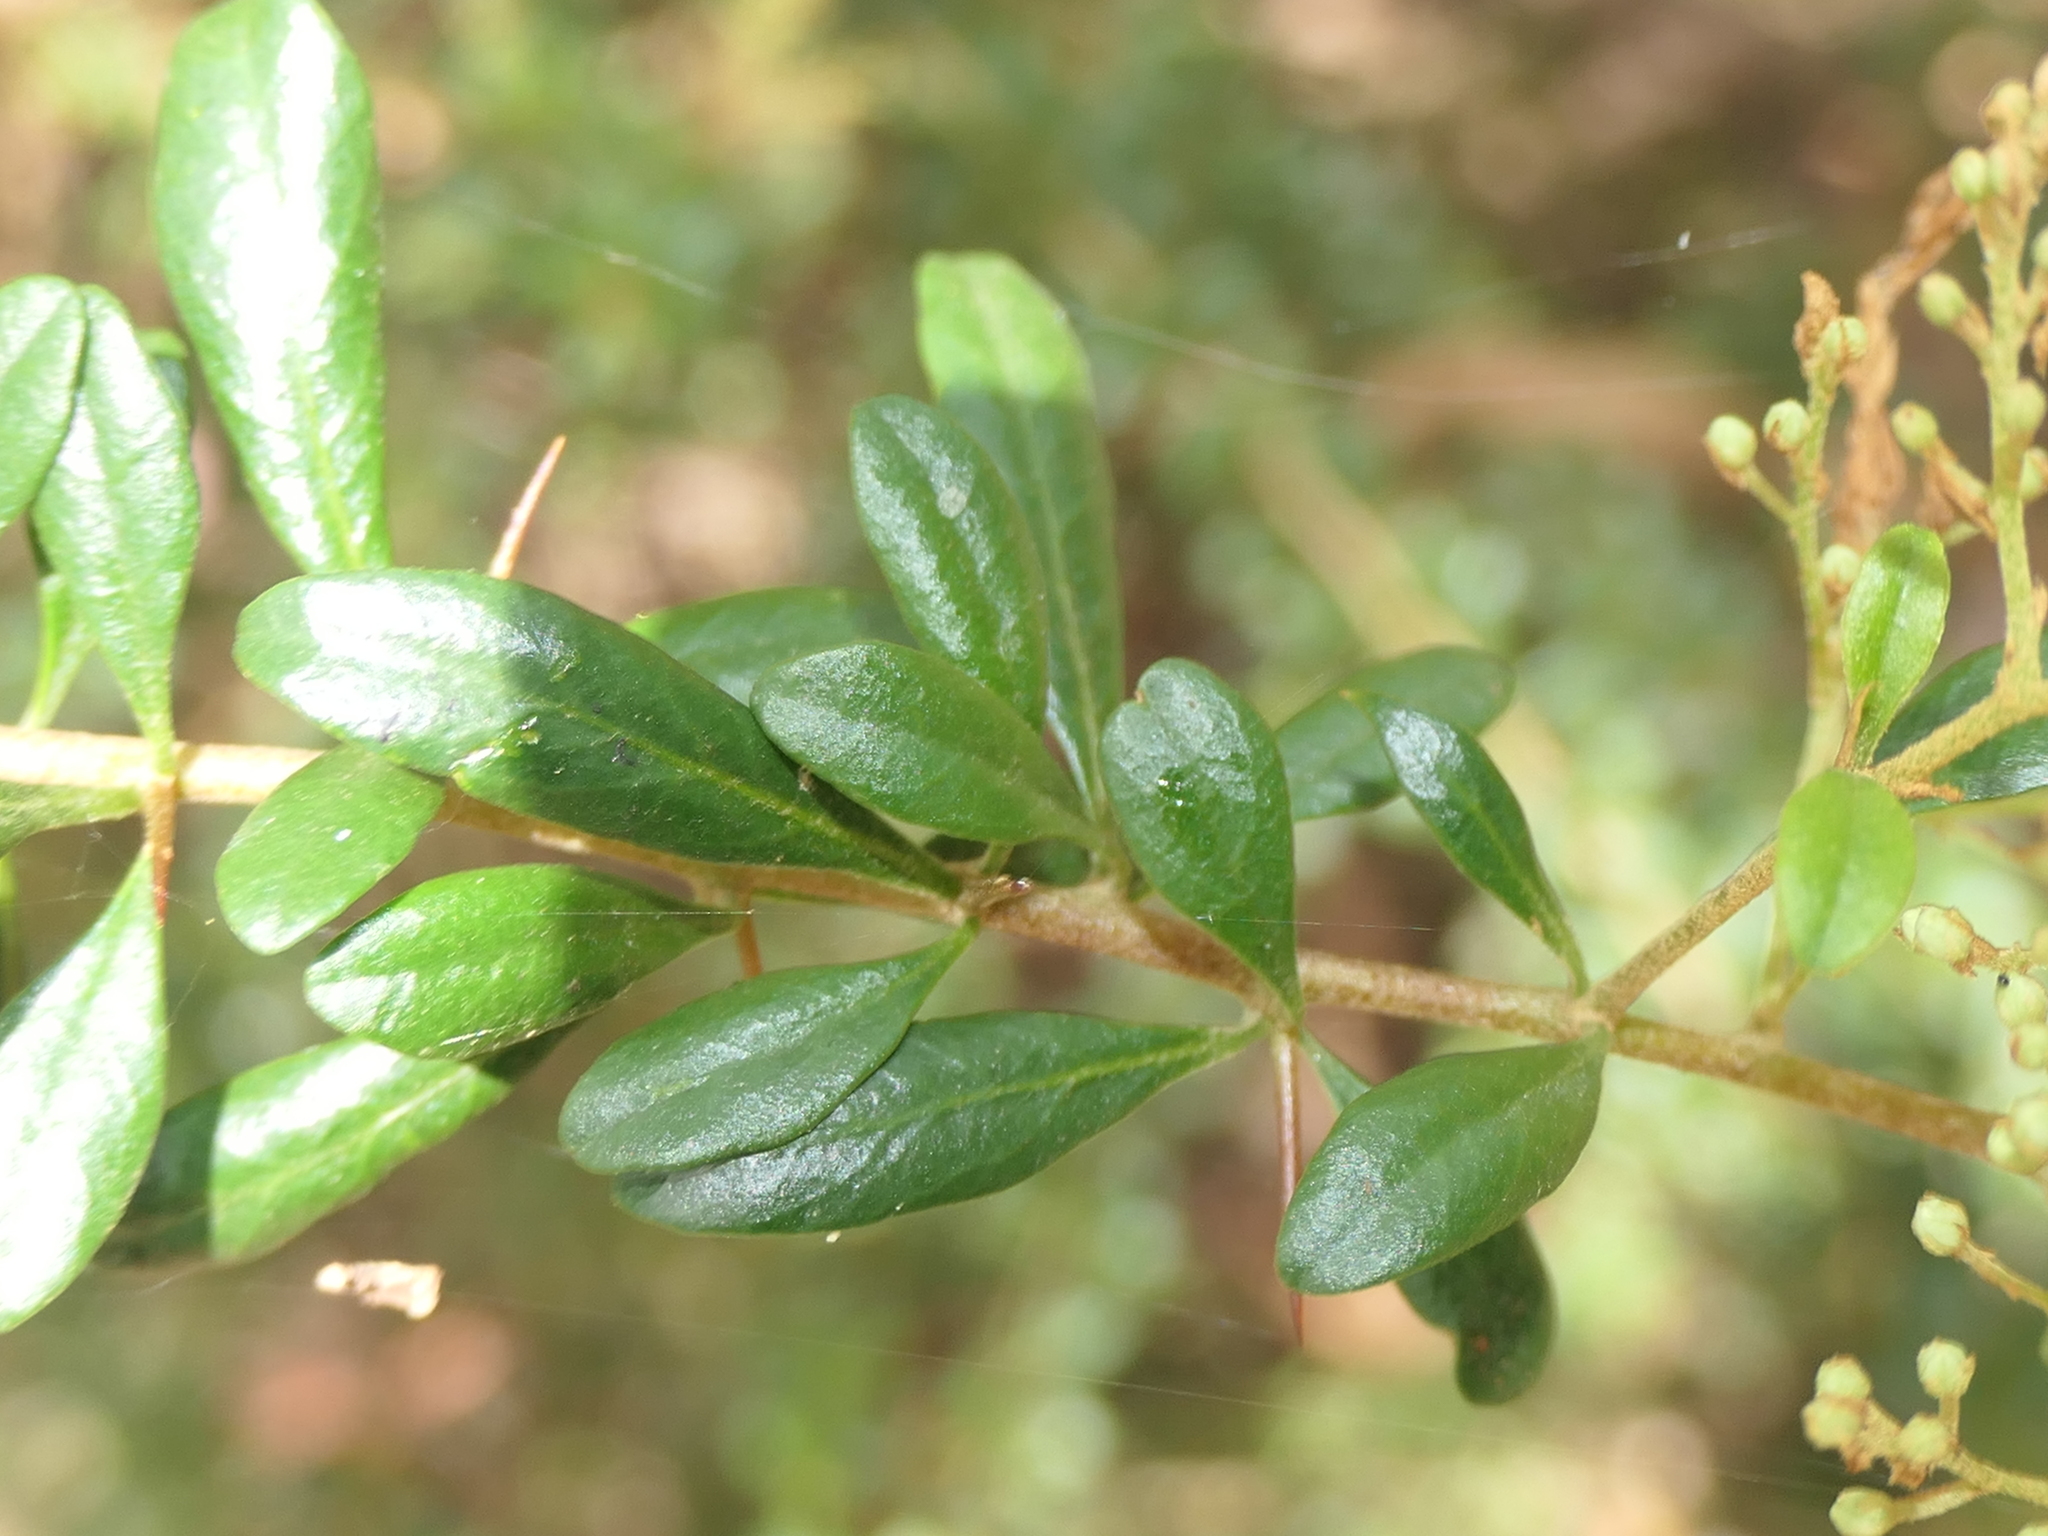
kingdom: Plantae
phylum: Tracheophyta
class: Magnoliopsida
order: Apiales
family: Pittosporaceae
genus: Bursaria
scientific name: Bursaria spinosa
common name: Australian blackthorn
